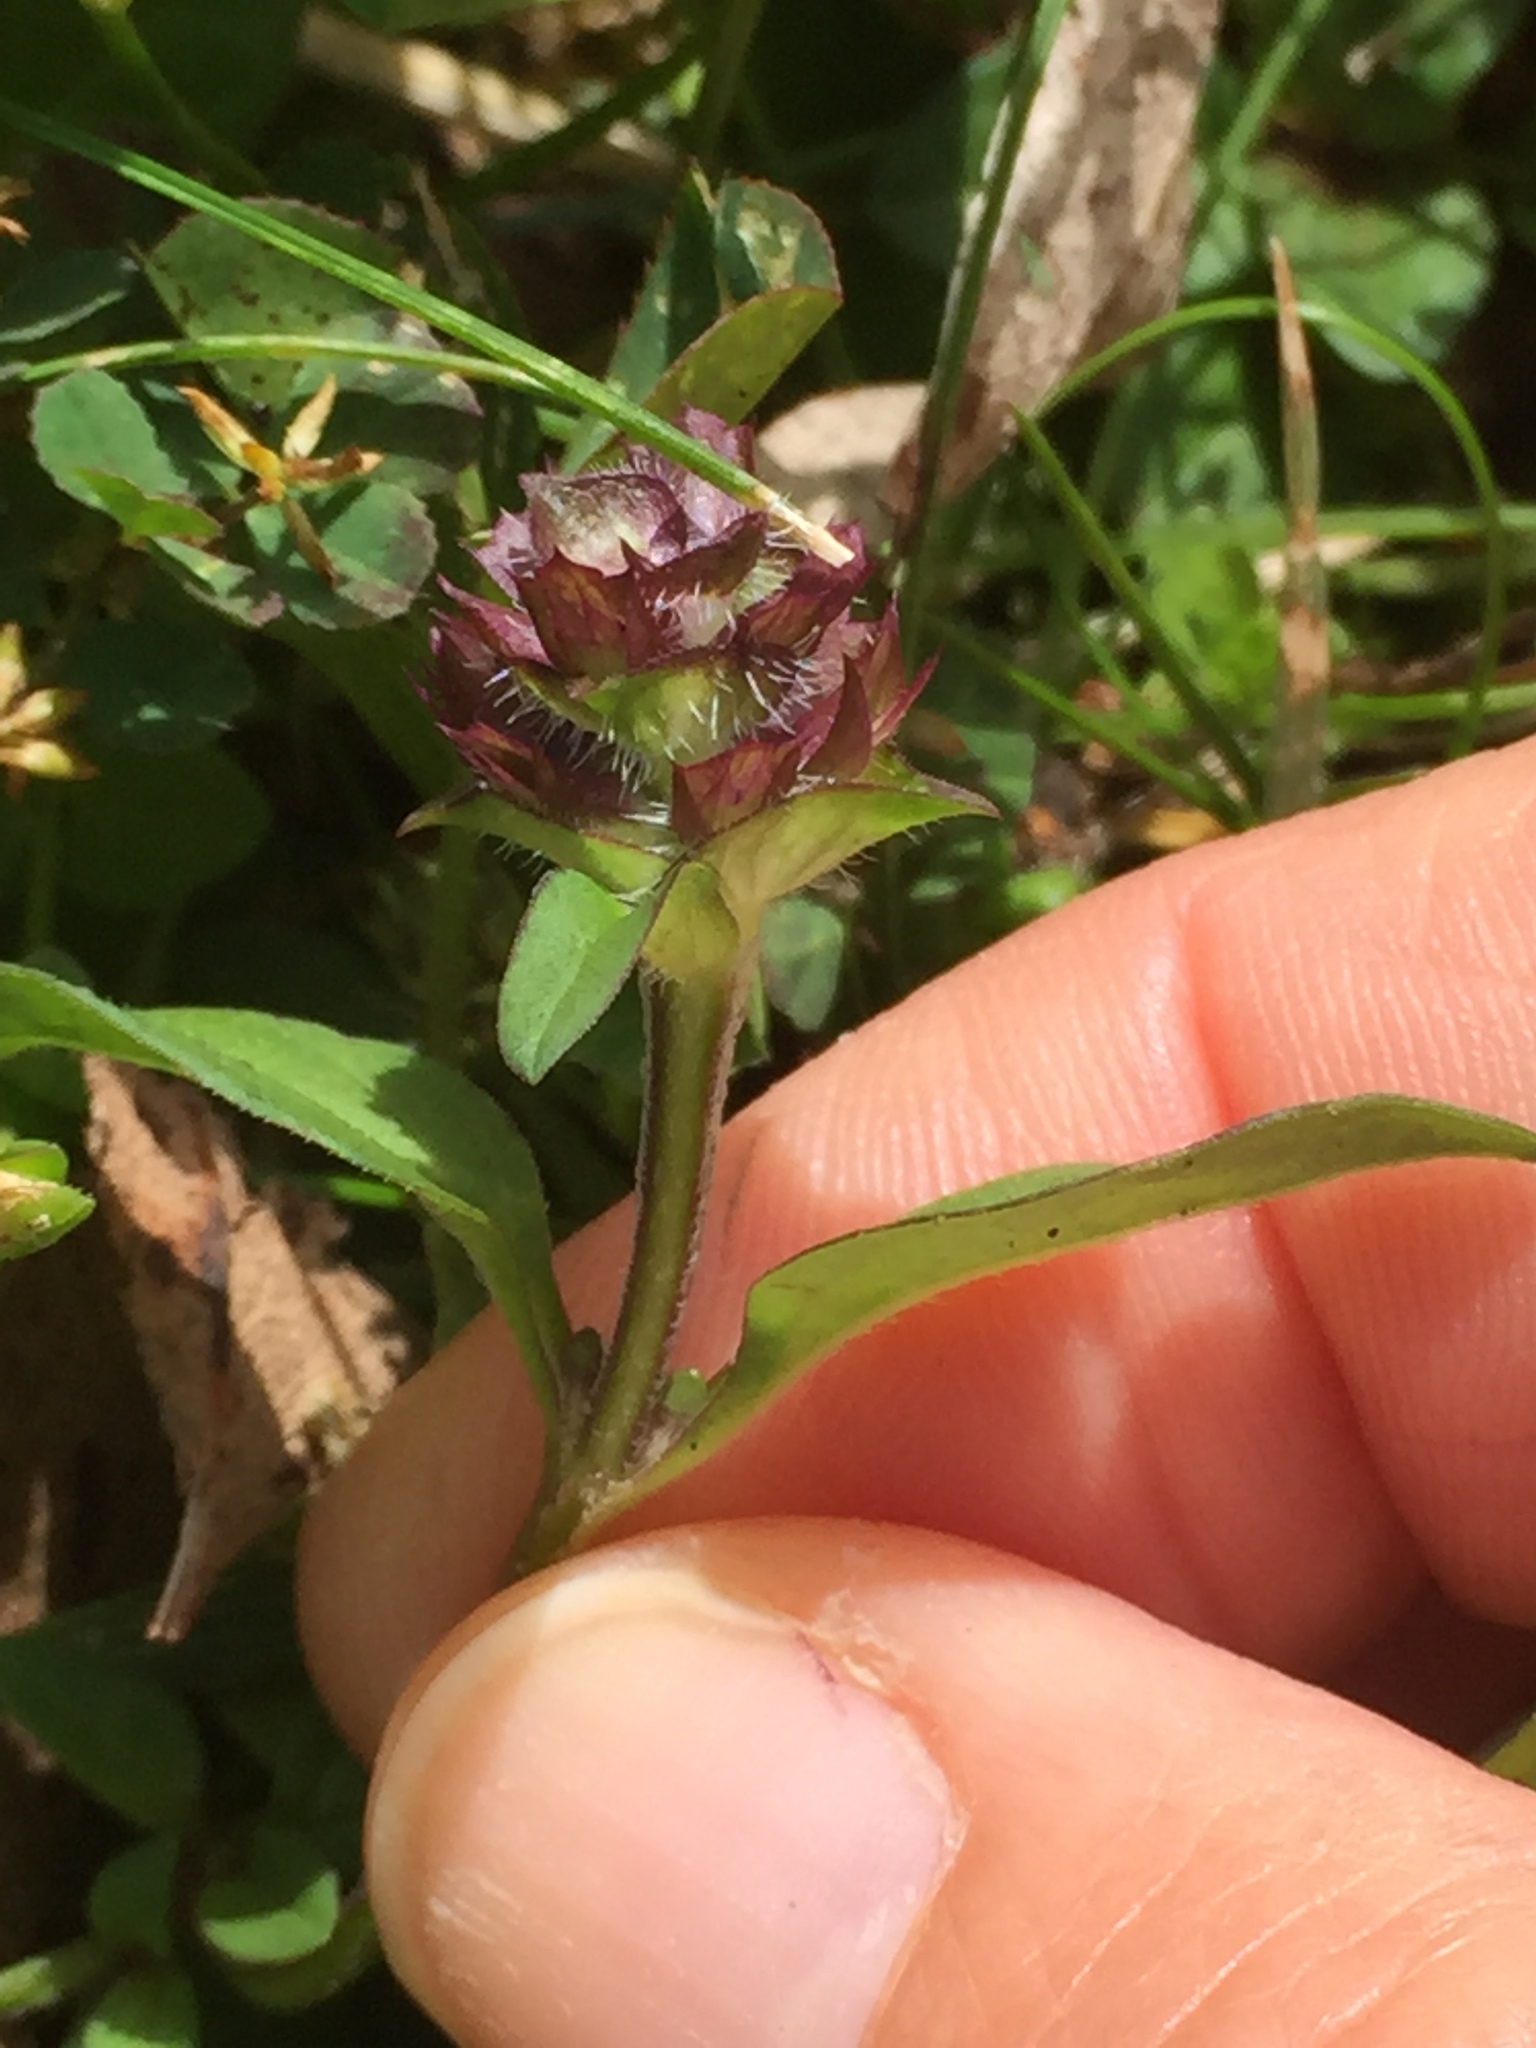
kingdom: Plantae
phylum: Tracheophyta
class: Magnoliopsida
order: Lamiales
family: Lamiaceae
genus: Prunella
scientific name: Prunella vulgaris
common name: Heal-all
